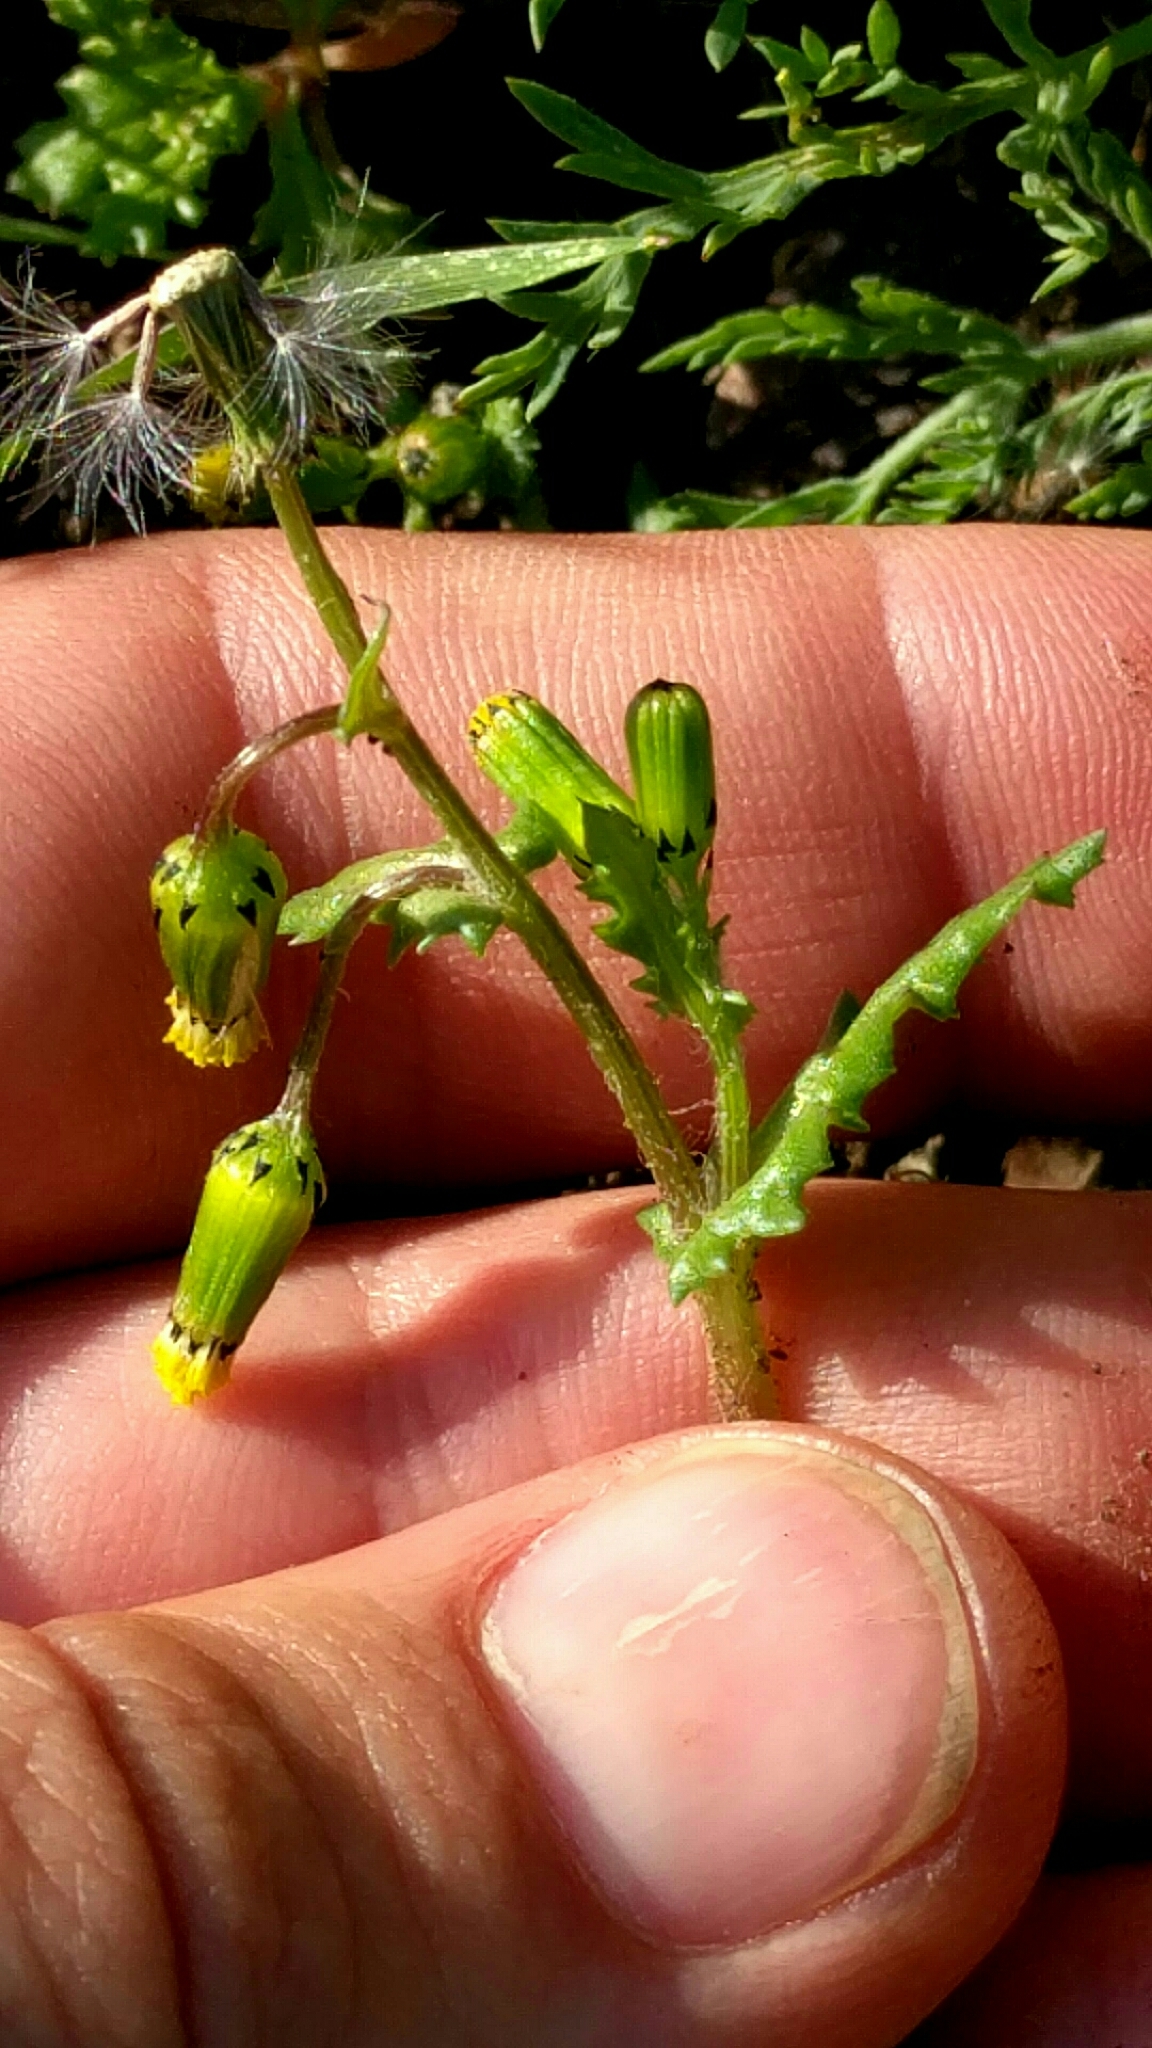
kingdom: Plantae
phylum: Tracheophyta
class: Magnoliopsida
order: Asterales
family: Asteraceae
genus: Senecio
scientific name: Senecio vulgaris
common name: Old-man-in-the-spring
